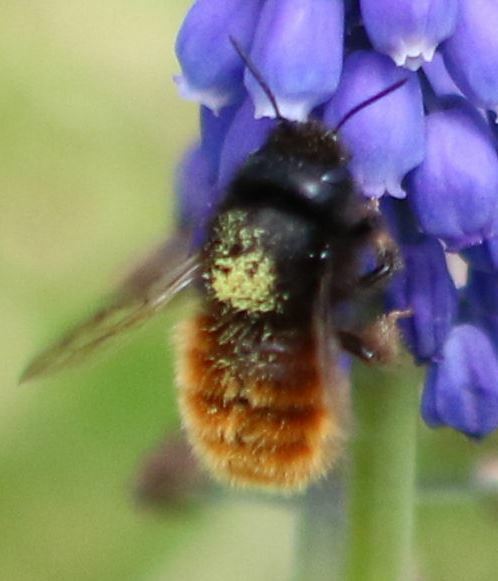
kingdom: Animalia
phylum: Arthropoda
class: Insecta
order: Hymenoptera
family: Megachilidae
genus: Osmia
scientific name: Osmia cornuta
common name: Mason bee
